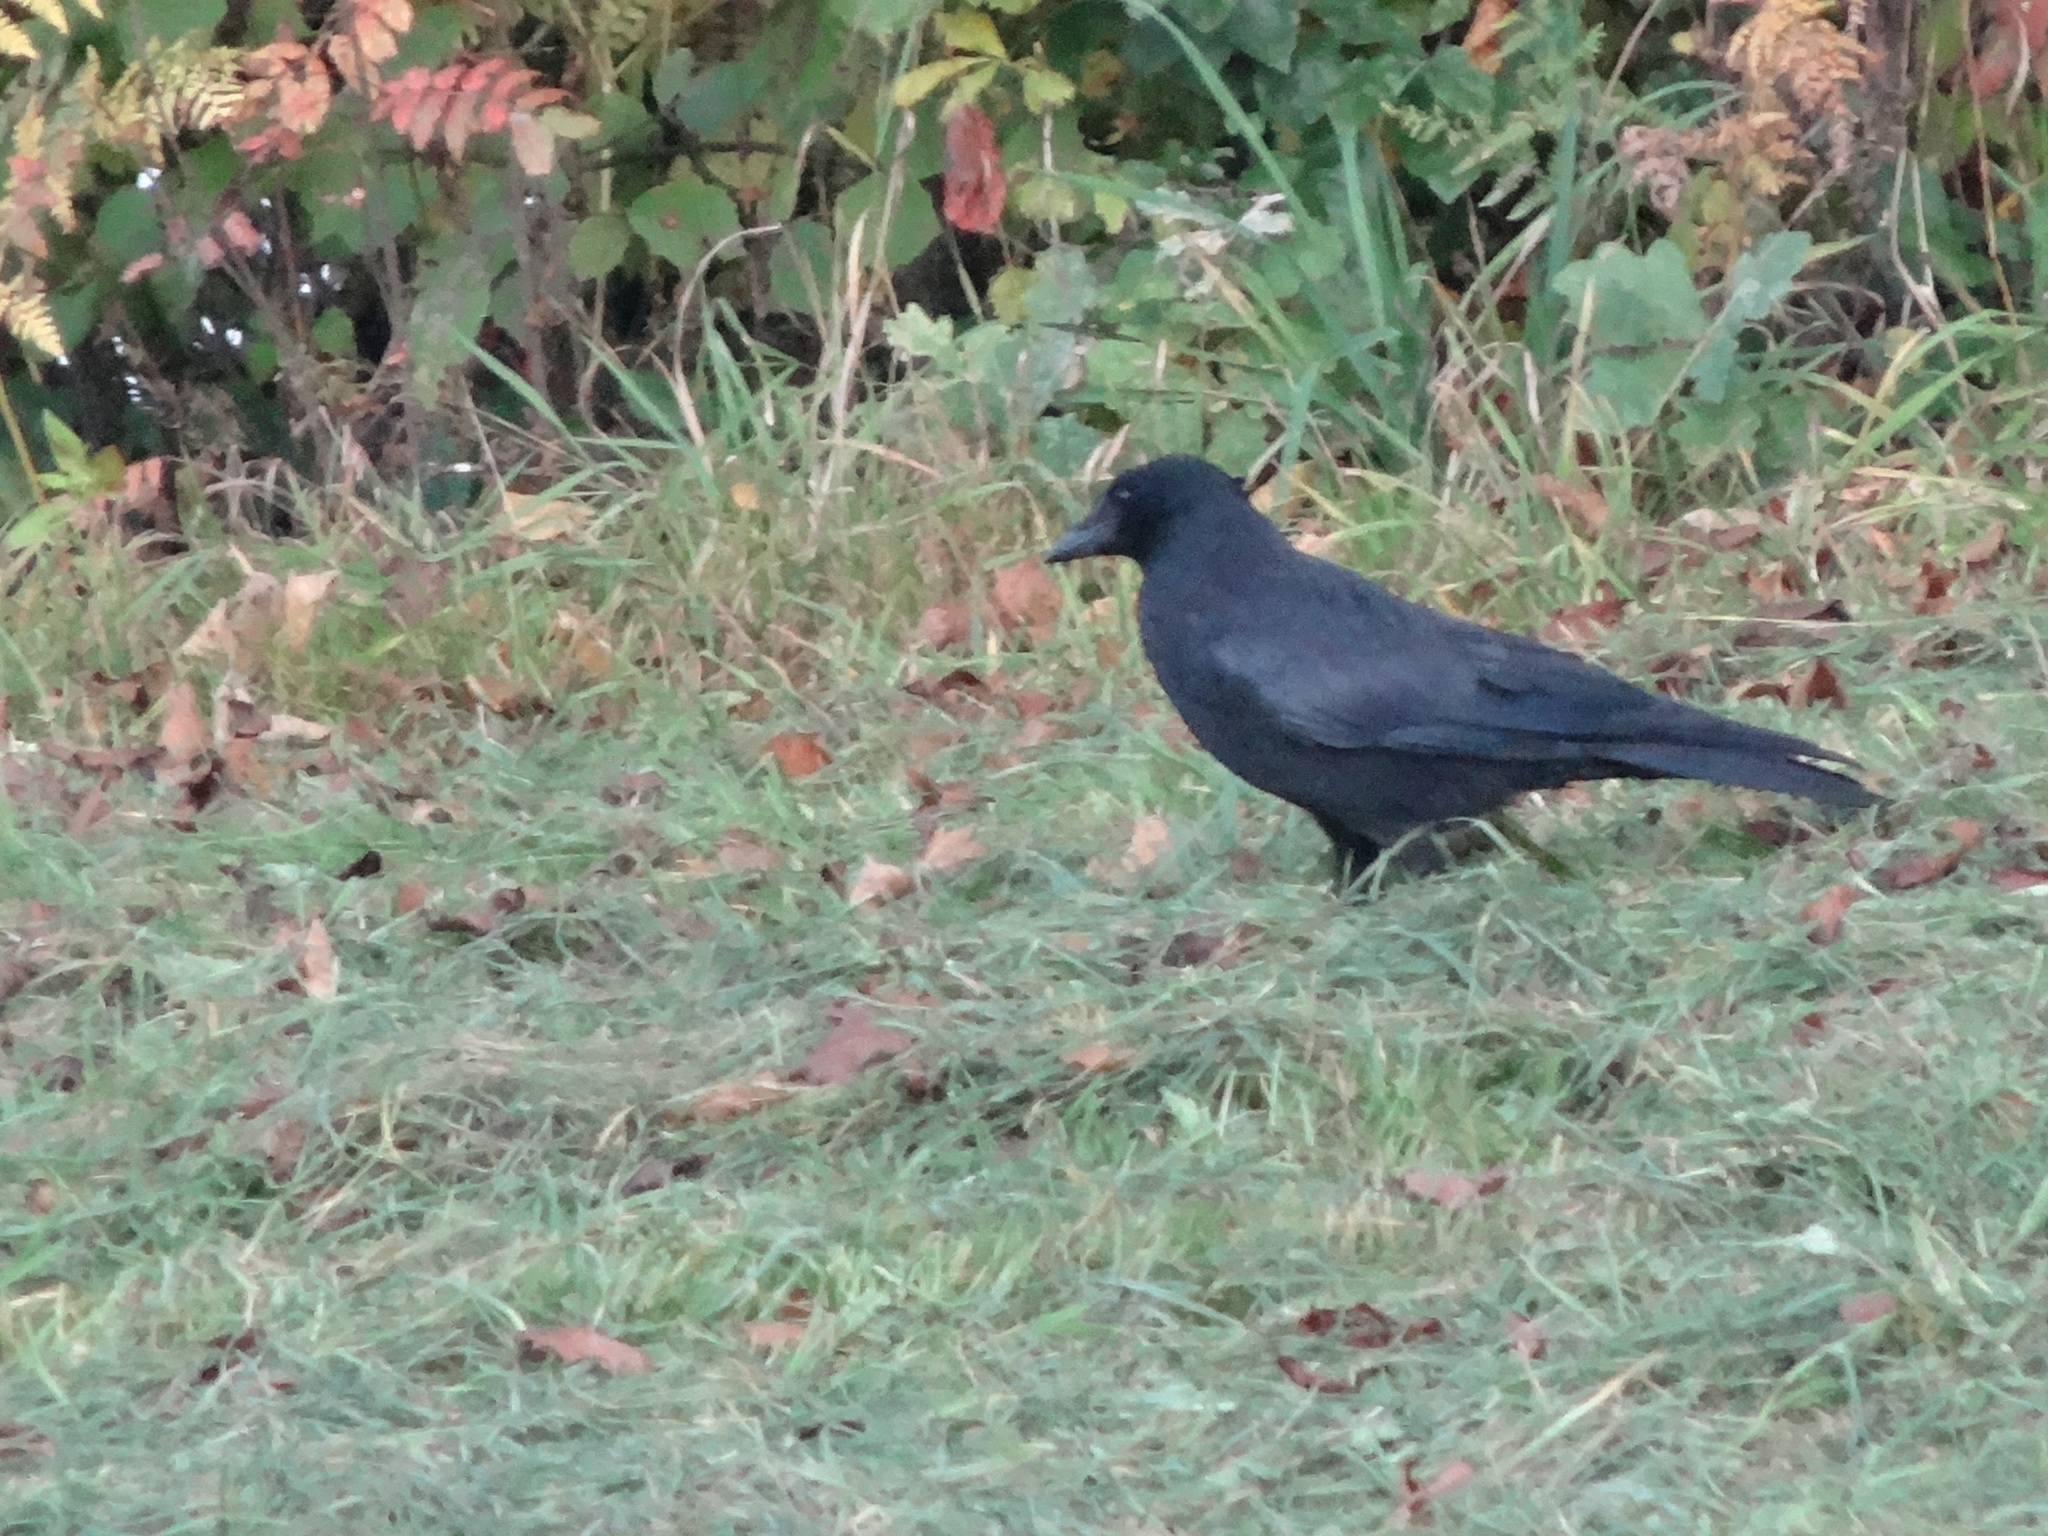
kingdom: Animalia
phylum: Chordata
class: Aves
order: Passeriformes
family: Corvidae
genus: Corvus
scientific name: Corvus corone
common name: Carrion crow
